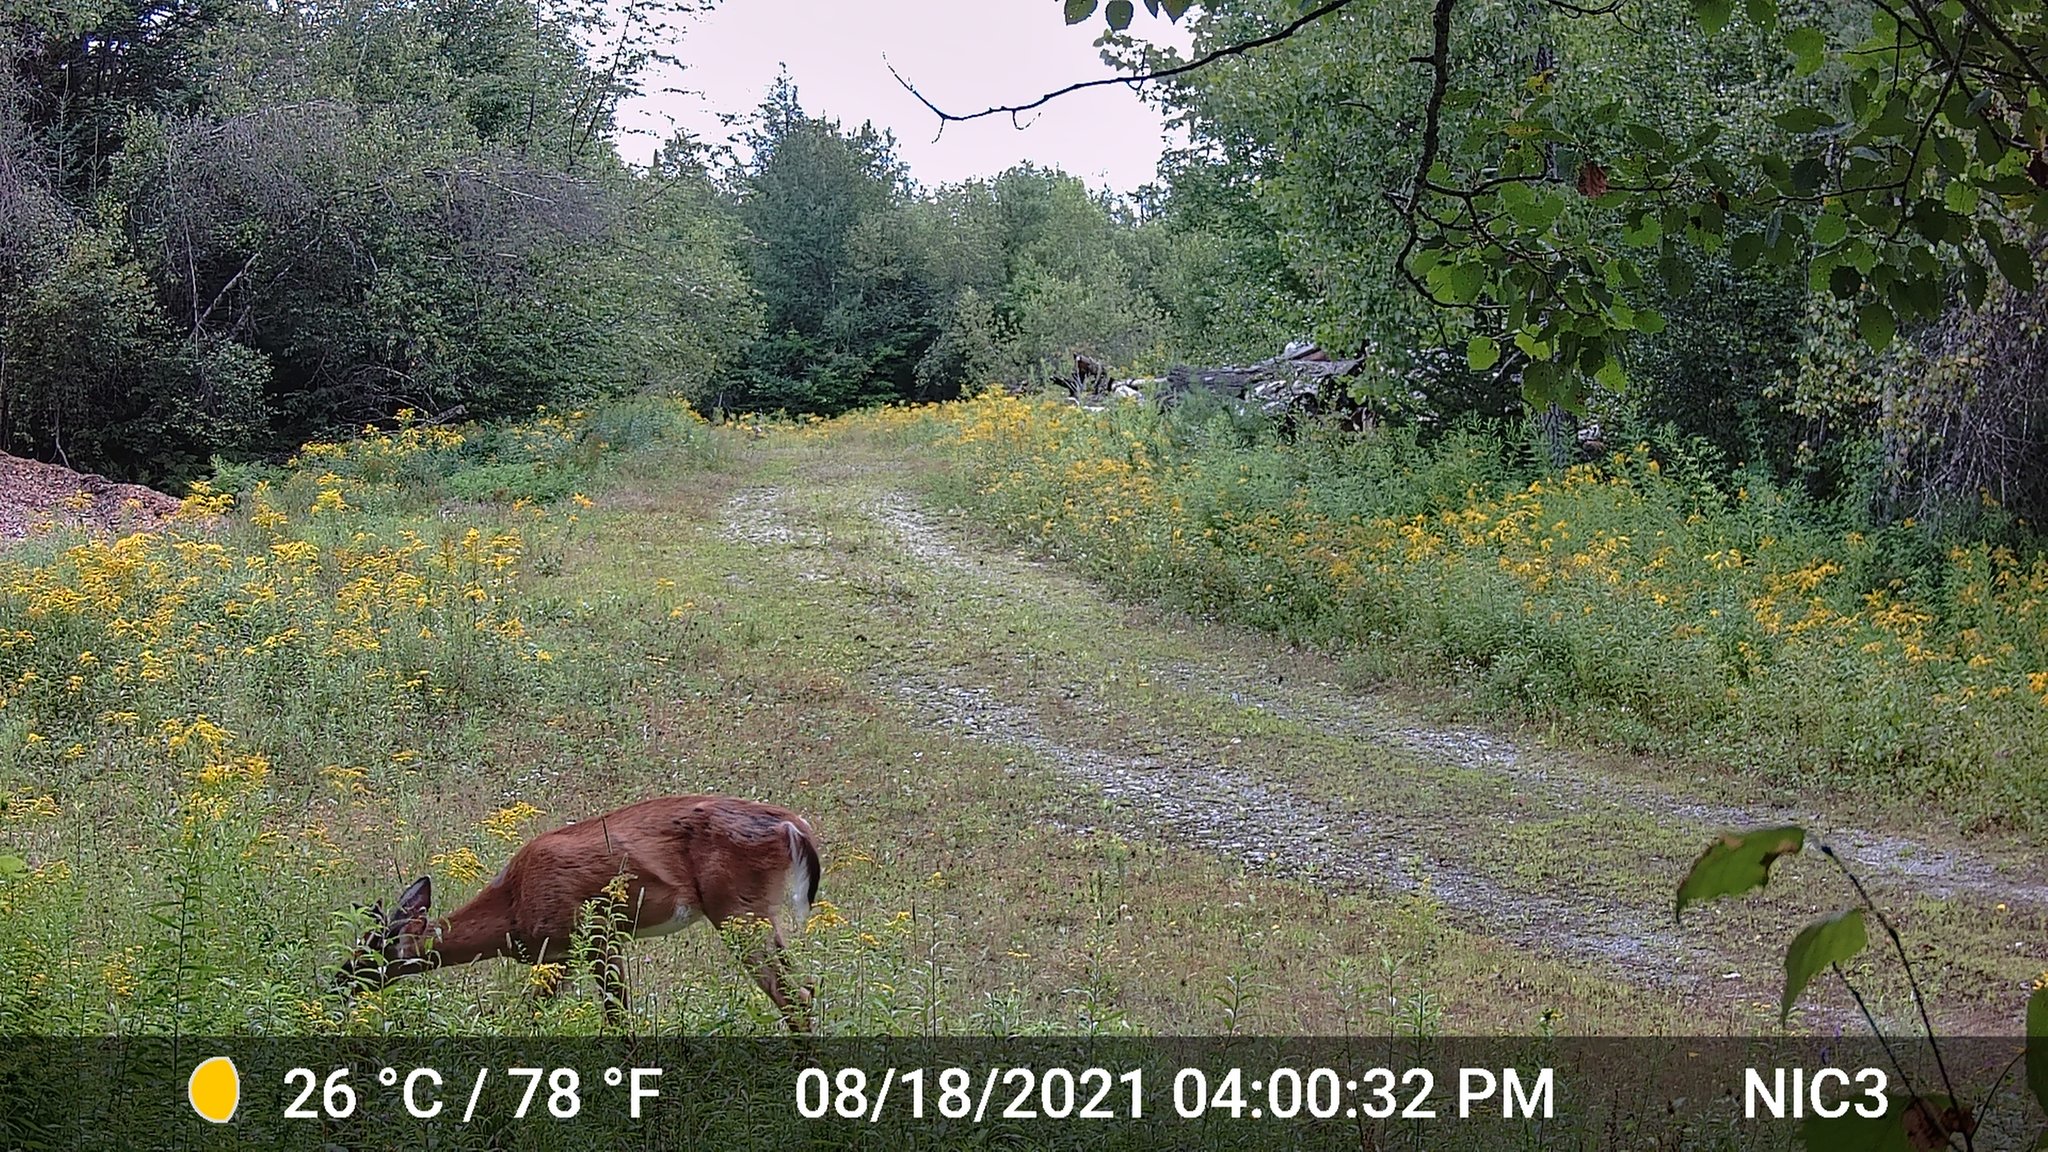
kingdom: Animalia
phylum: Chordata
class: Mammalia
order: Artiodactyla
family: Cervidae
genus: Odocoileus
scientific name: Odocoileus virginianus
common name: White-tailed deer
